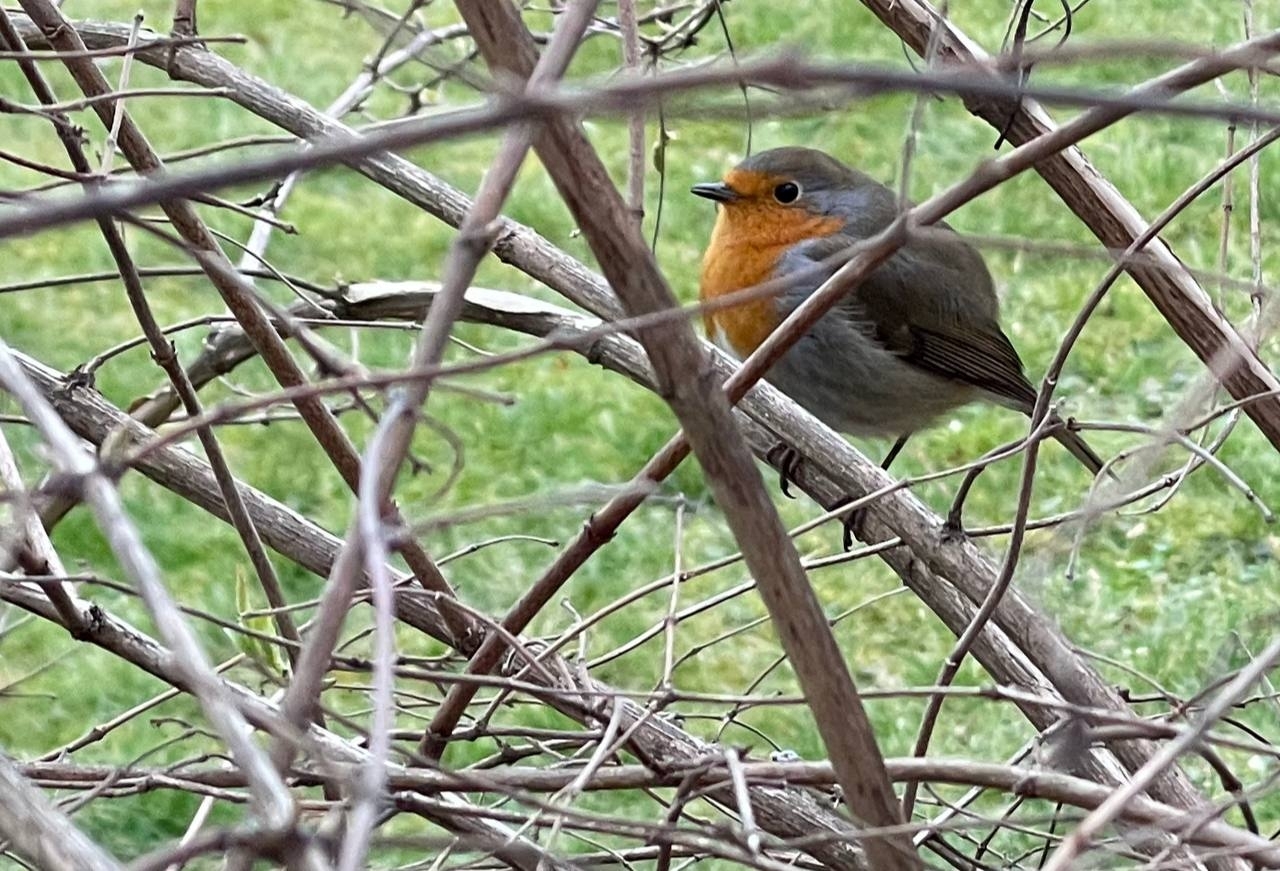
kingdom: Animalia
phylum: Chordata
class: Aves
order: Passeriformes
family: Muscicapidae
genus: Erithacus
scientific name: Erithacus rubecula
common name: European robin
